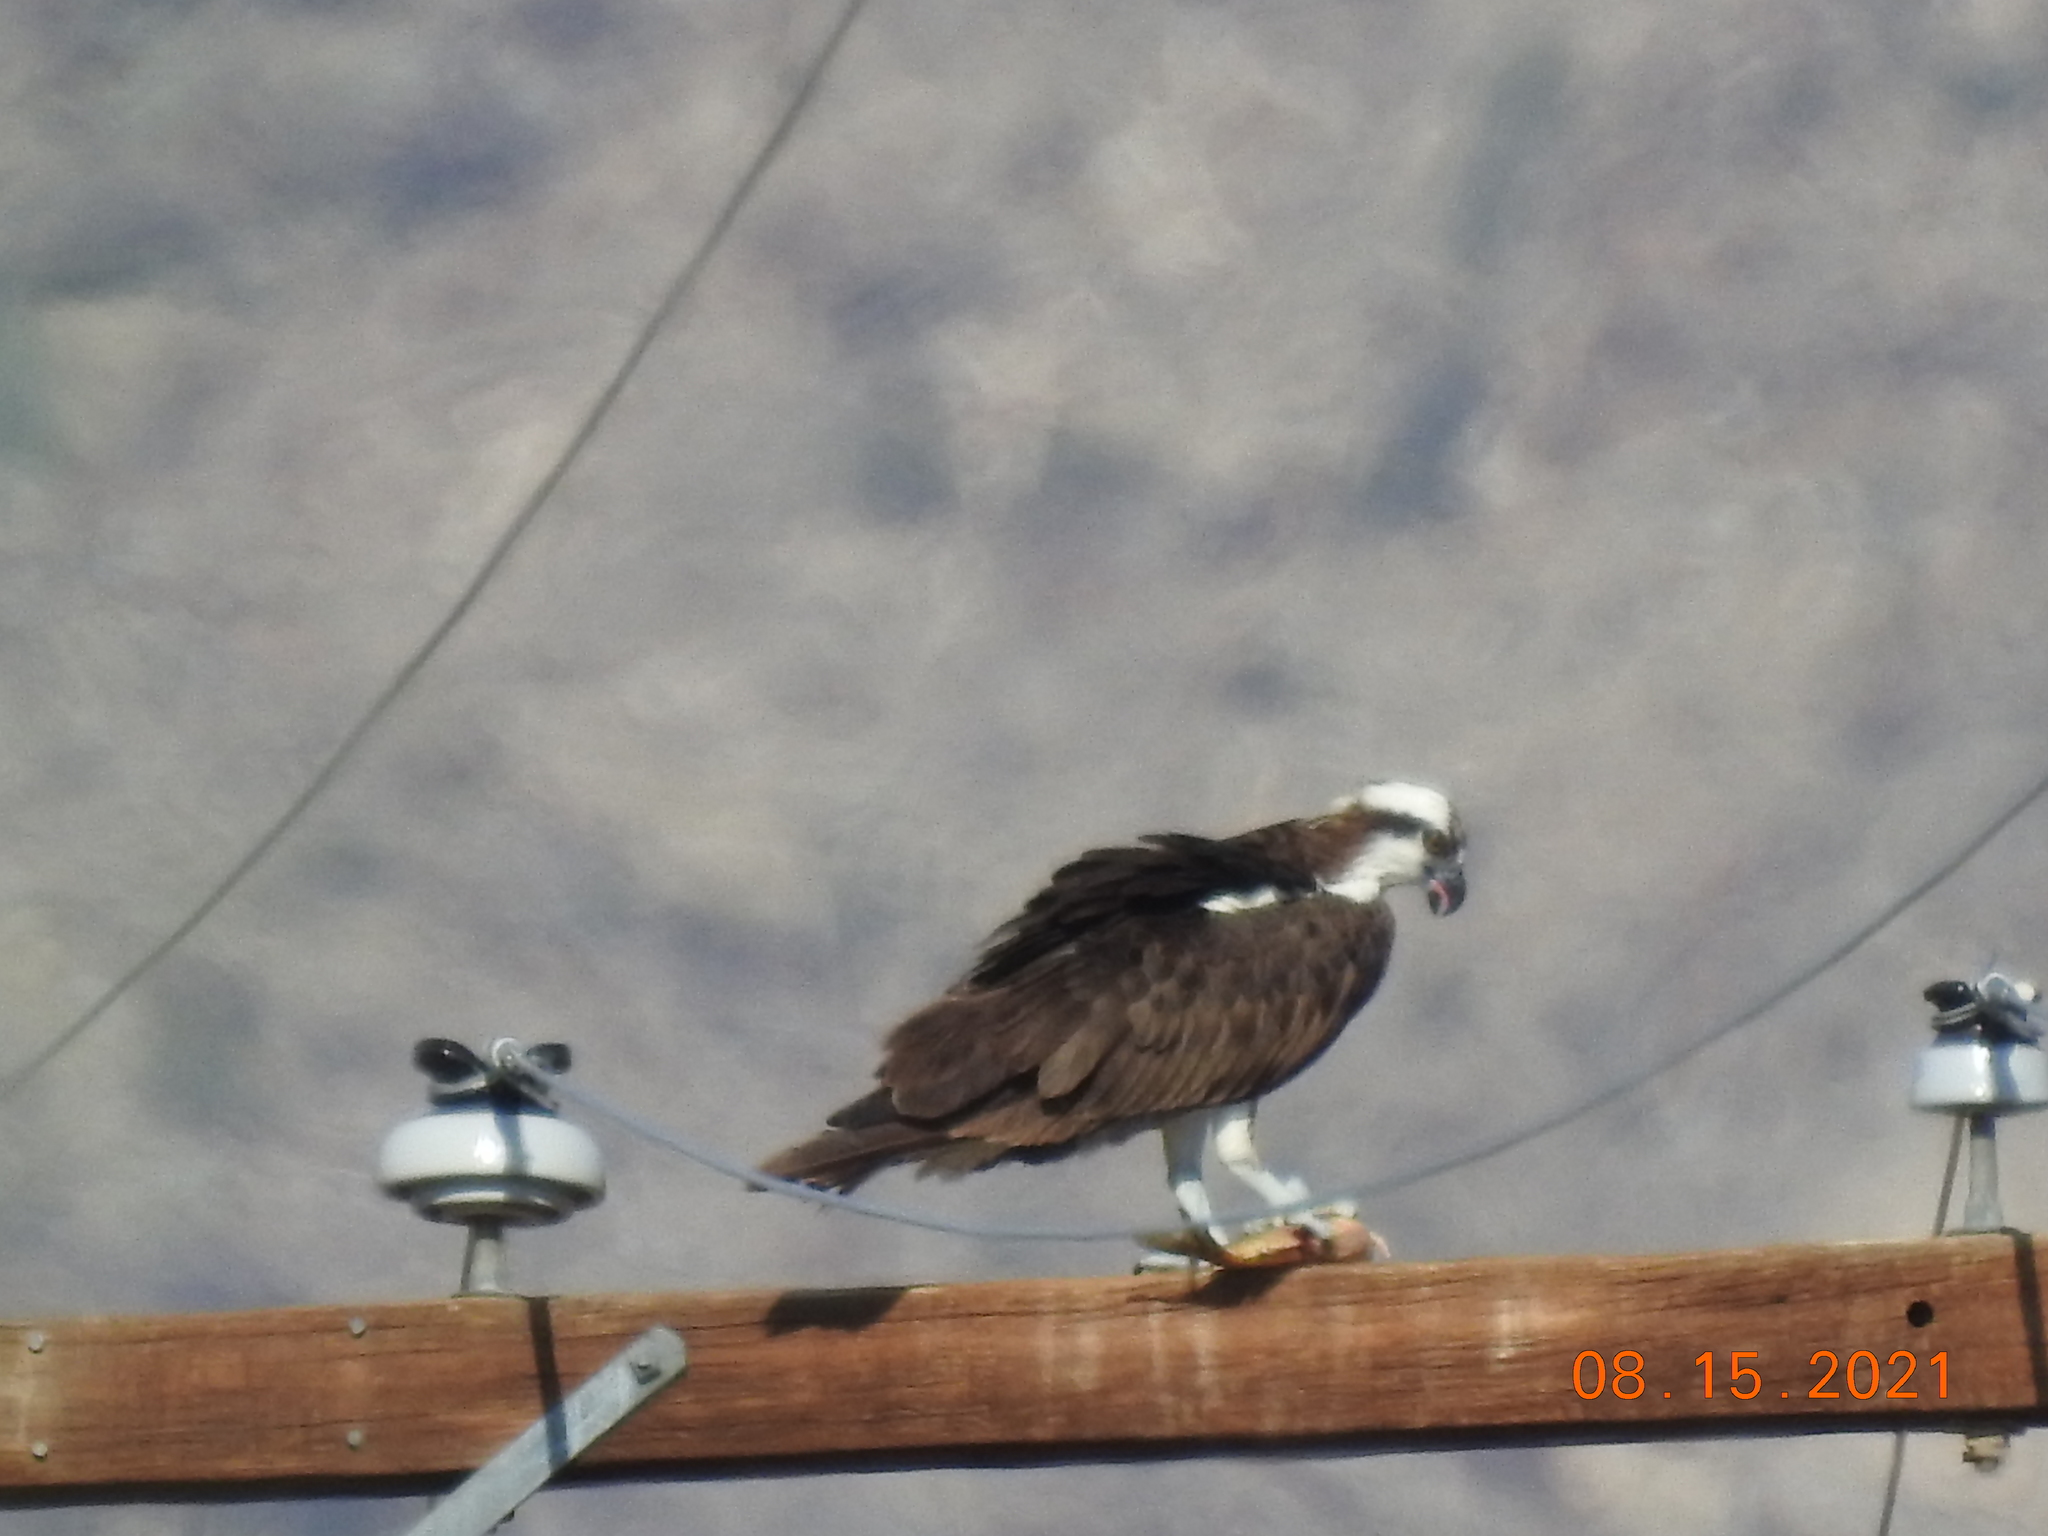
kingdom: Animalia
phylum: Chordata
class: Aves
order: Accipitriformes
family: Pandionidae
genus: Pandion
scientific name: Pandion haliaetus
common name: Osprey
